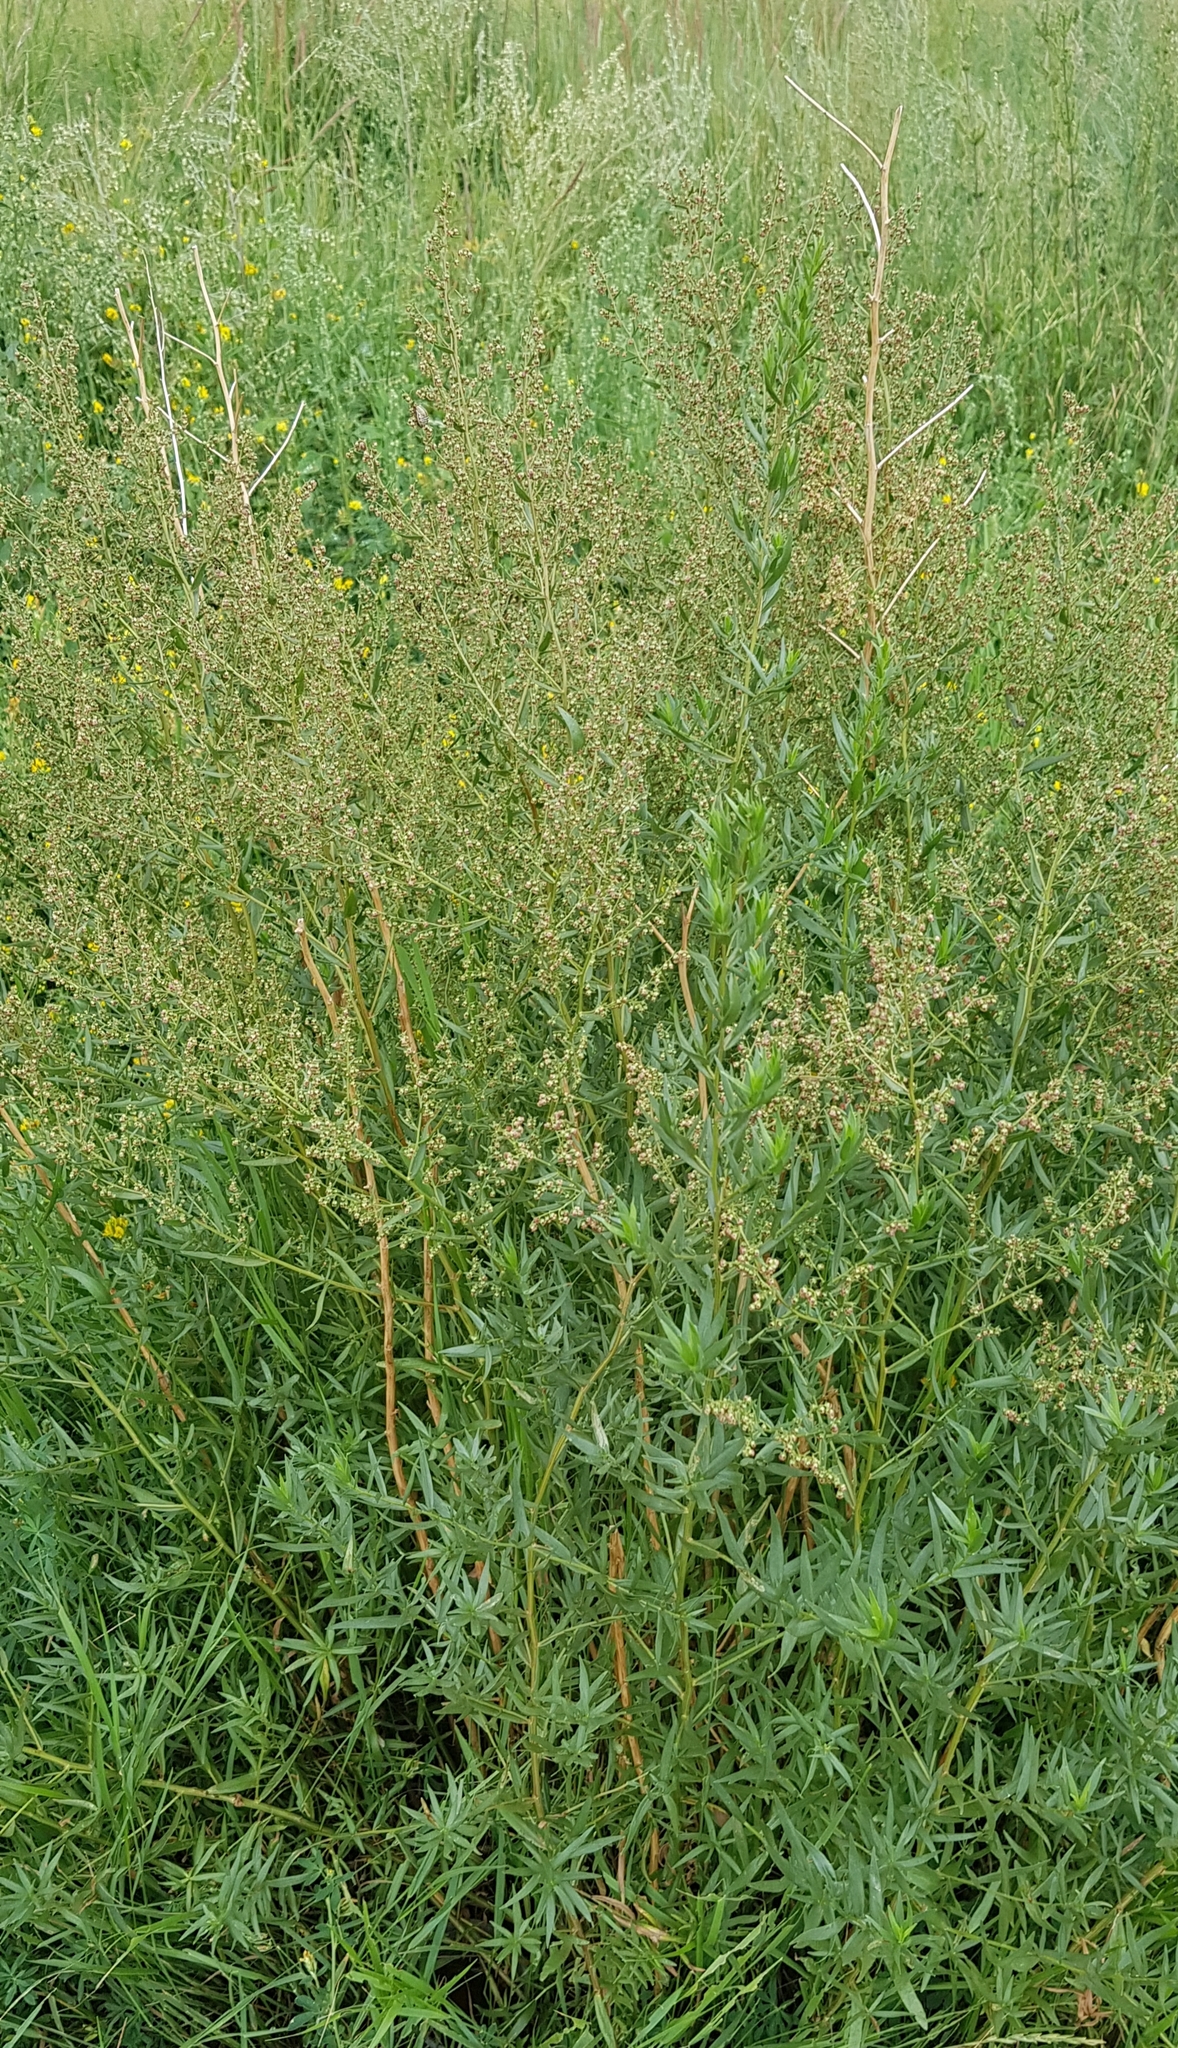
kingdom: Plantae
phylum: Tracheophyta
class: Magnoliopsida
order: Asterales
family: Asteraceae
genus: Artemisia
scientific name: Artemisia dracunculus
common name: Tarragon
